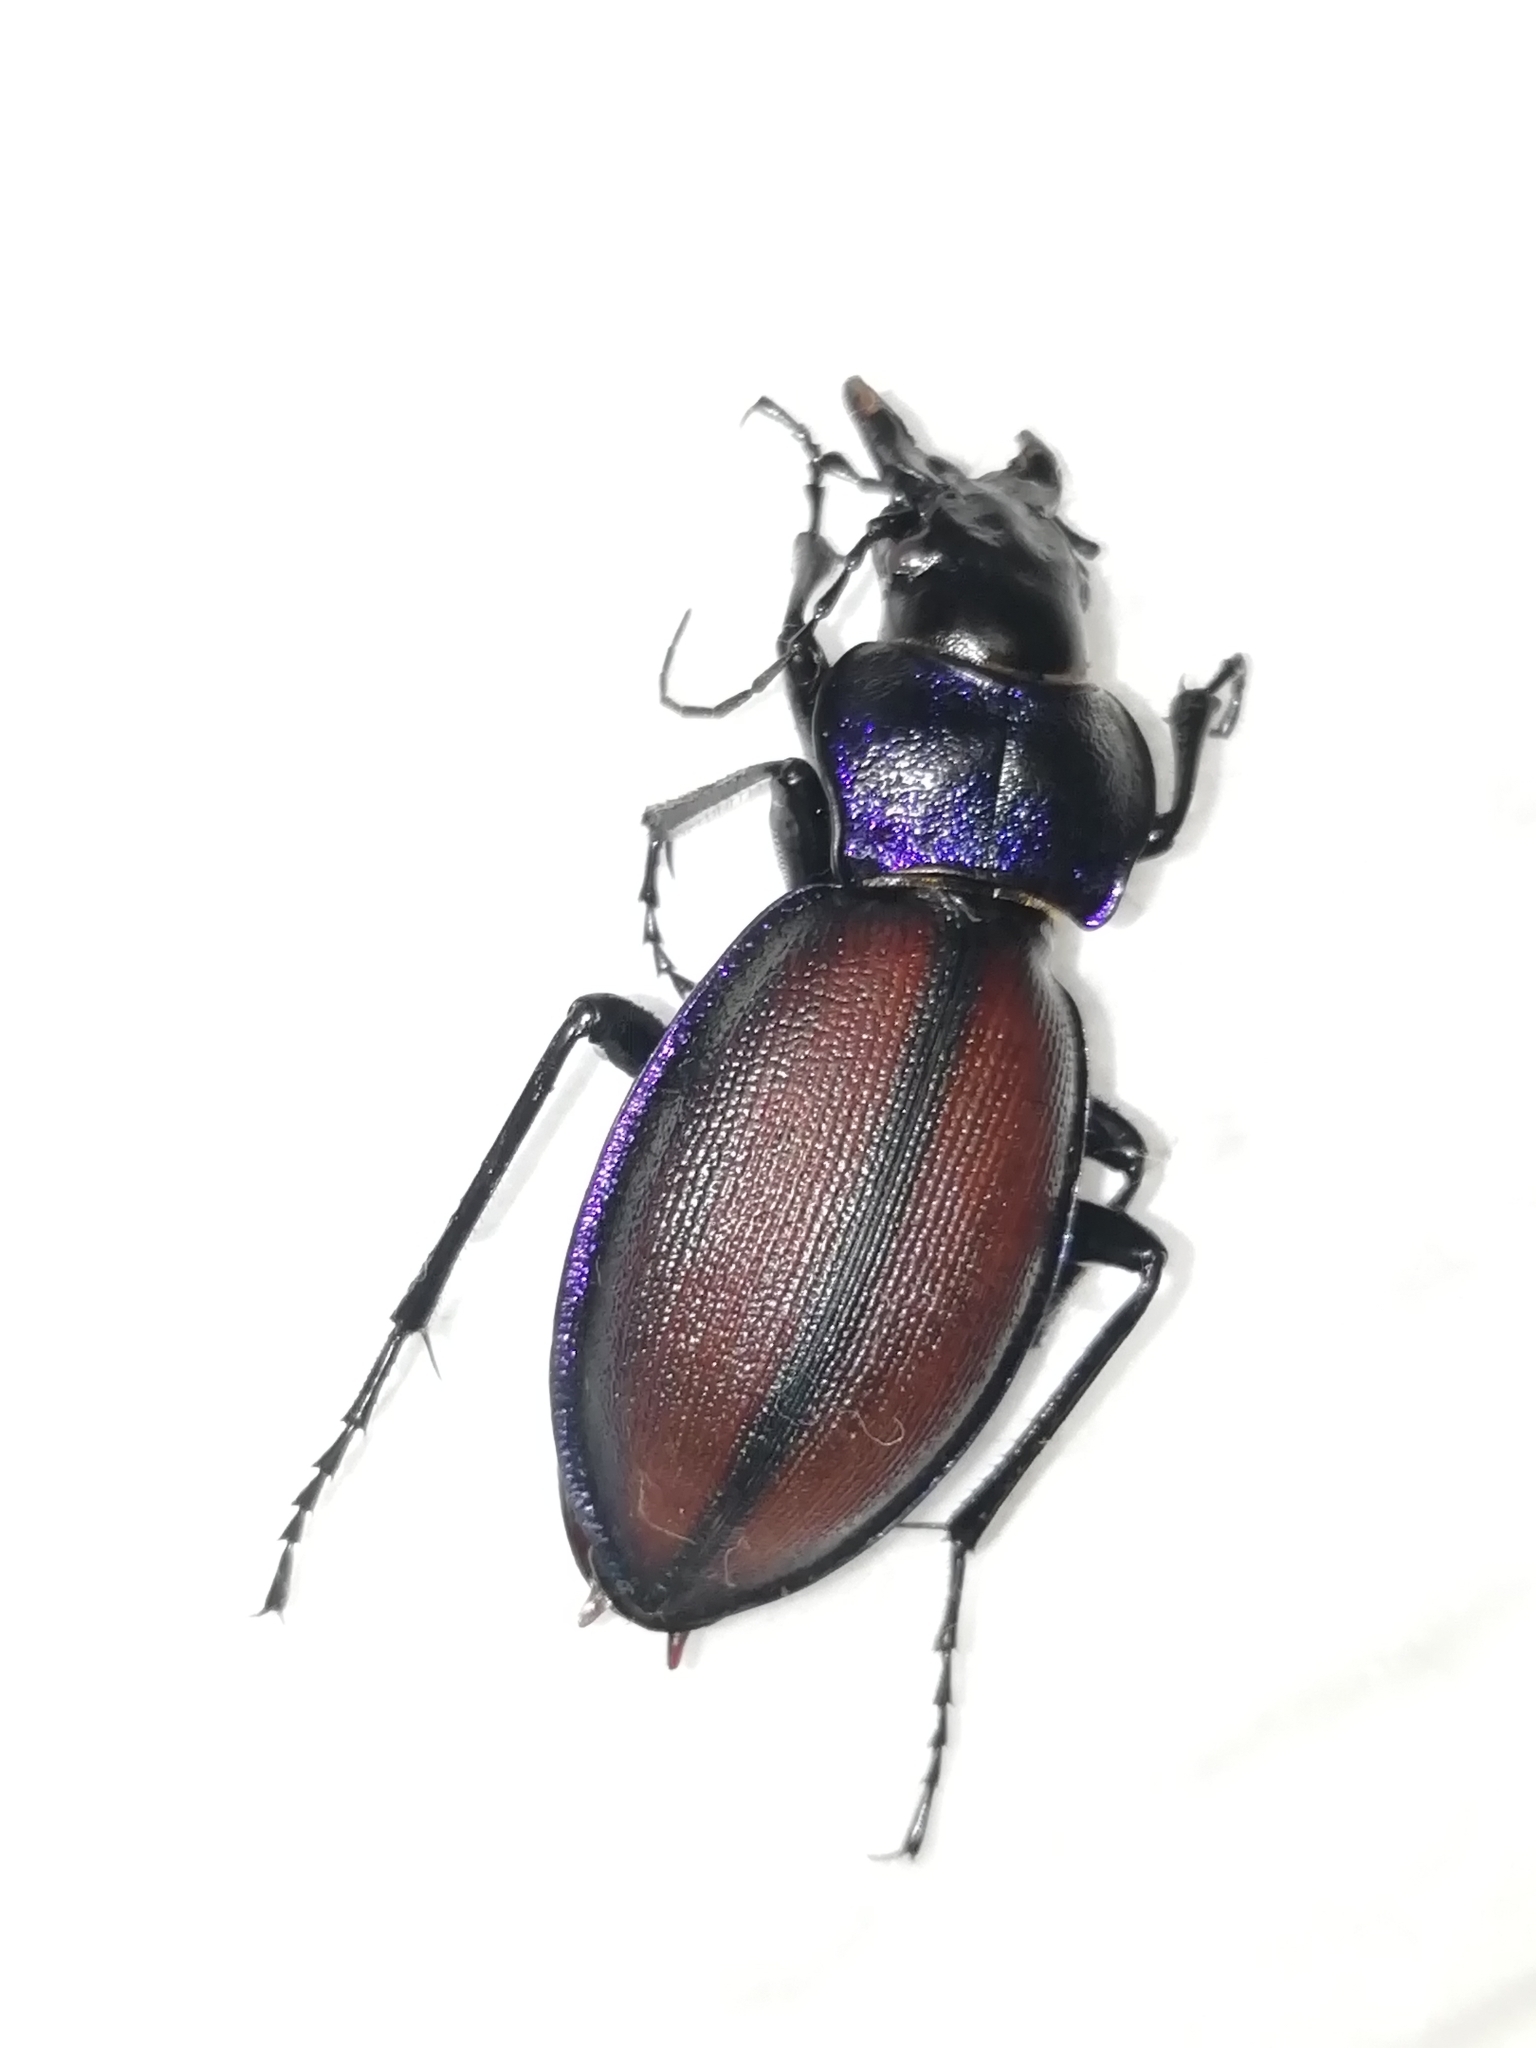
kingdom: Animalia
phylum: Arthropoda
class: Insecta
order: Coleoptera
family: Carabidae
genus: Carabus
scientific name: Carabus schoenherri
